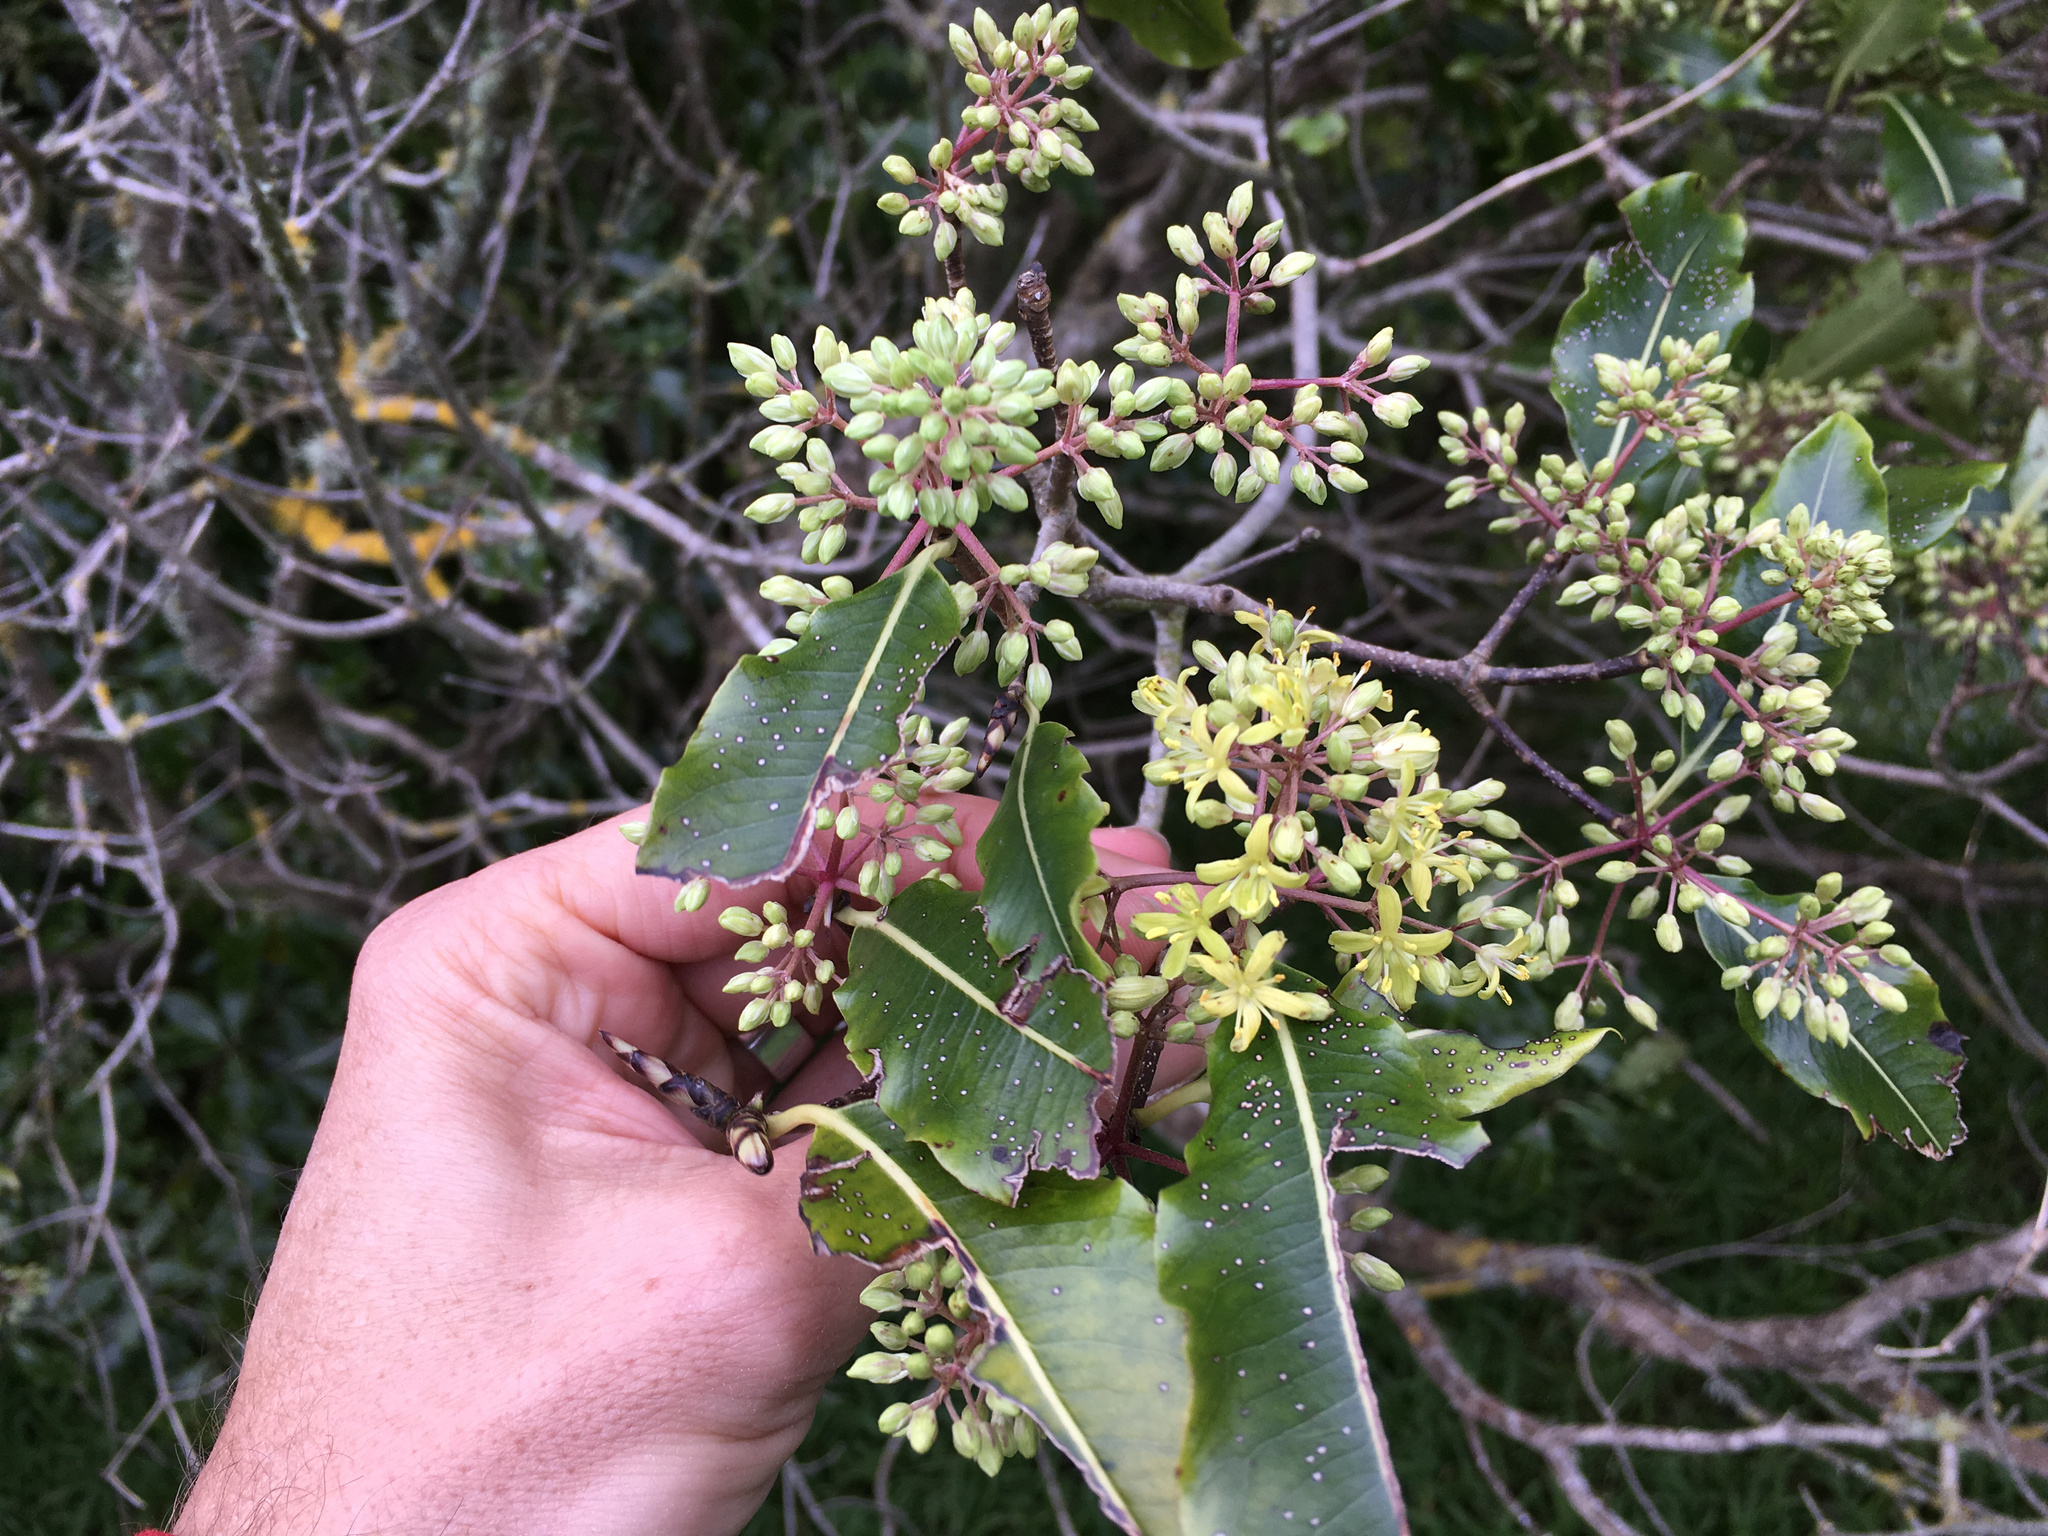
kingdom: Plantae
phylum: Tracheophyta
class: Magnoliopsida
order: Apiales
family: Pittosporaceae
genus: Pittosporum
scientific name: Pittosporum eugenioides
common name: Lemonwood
